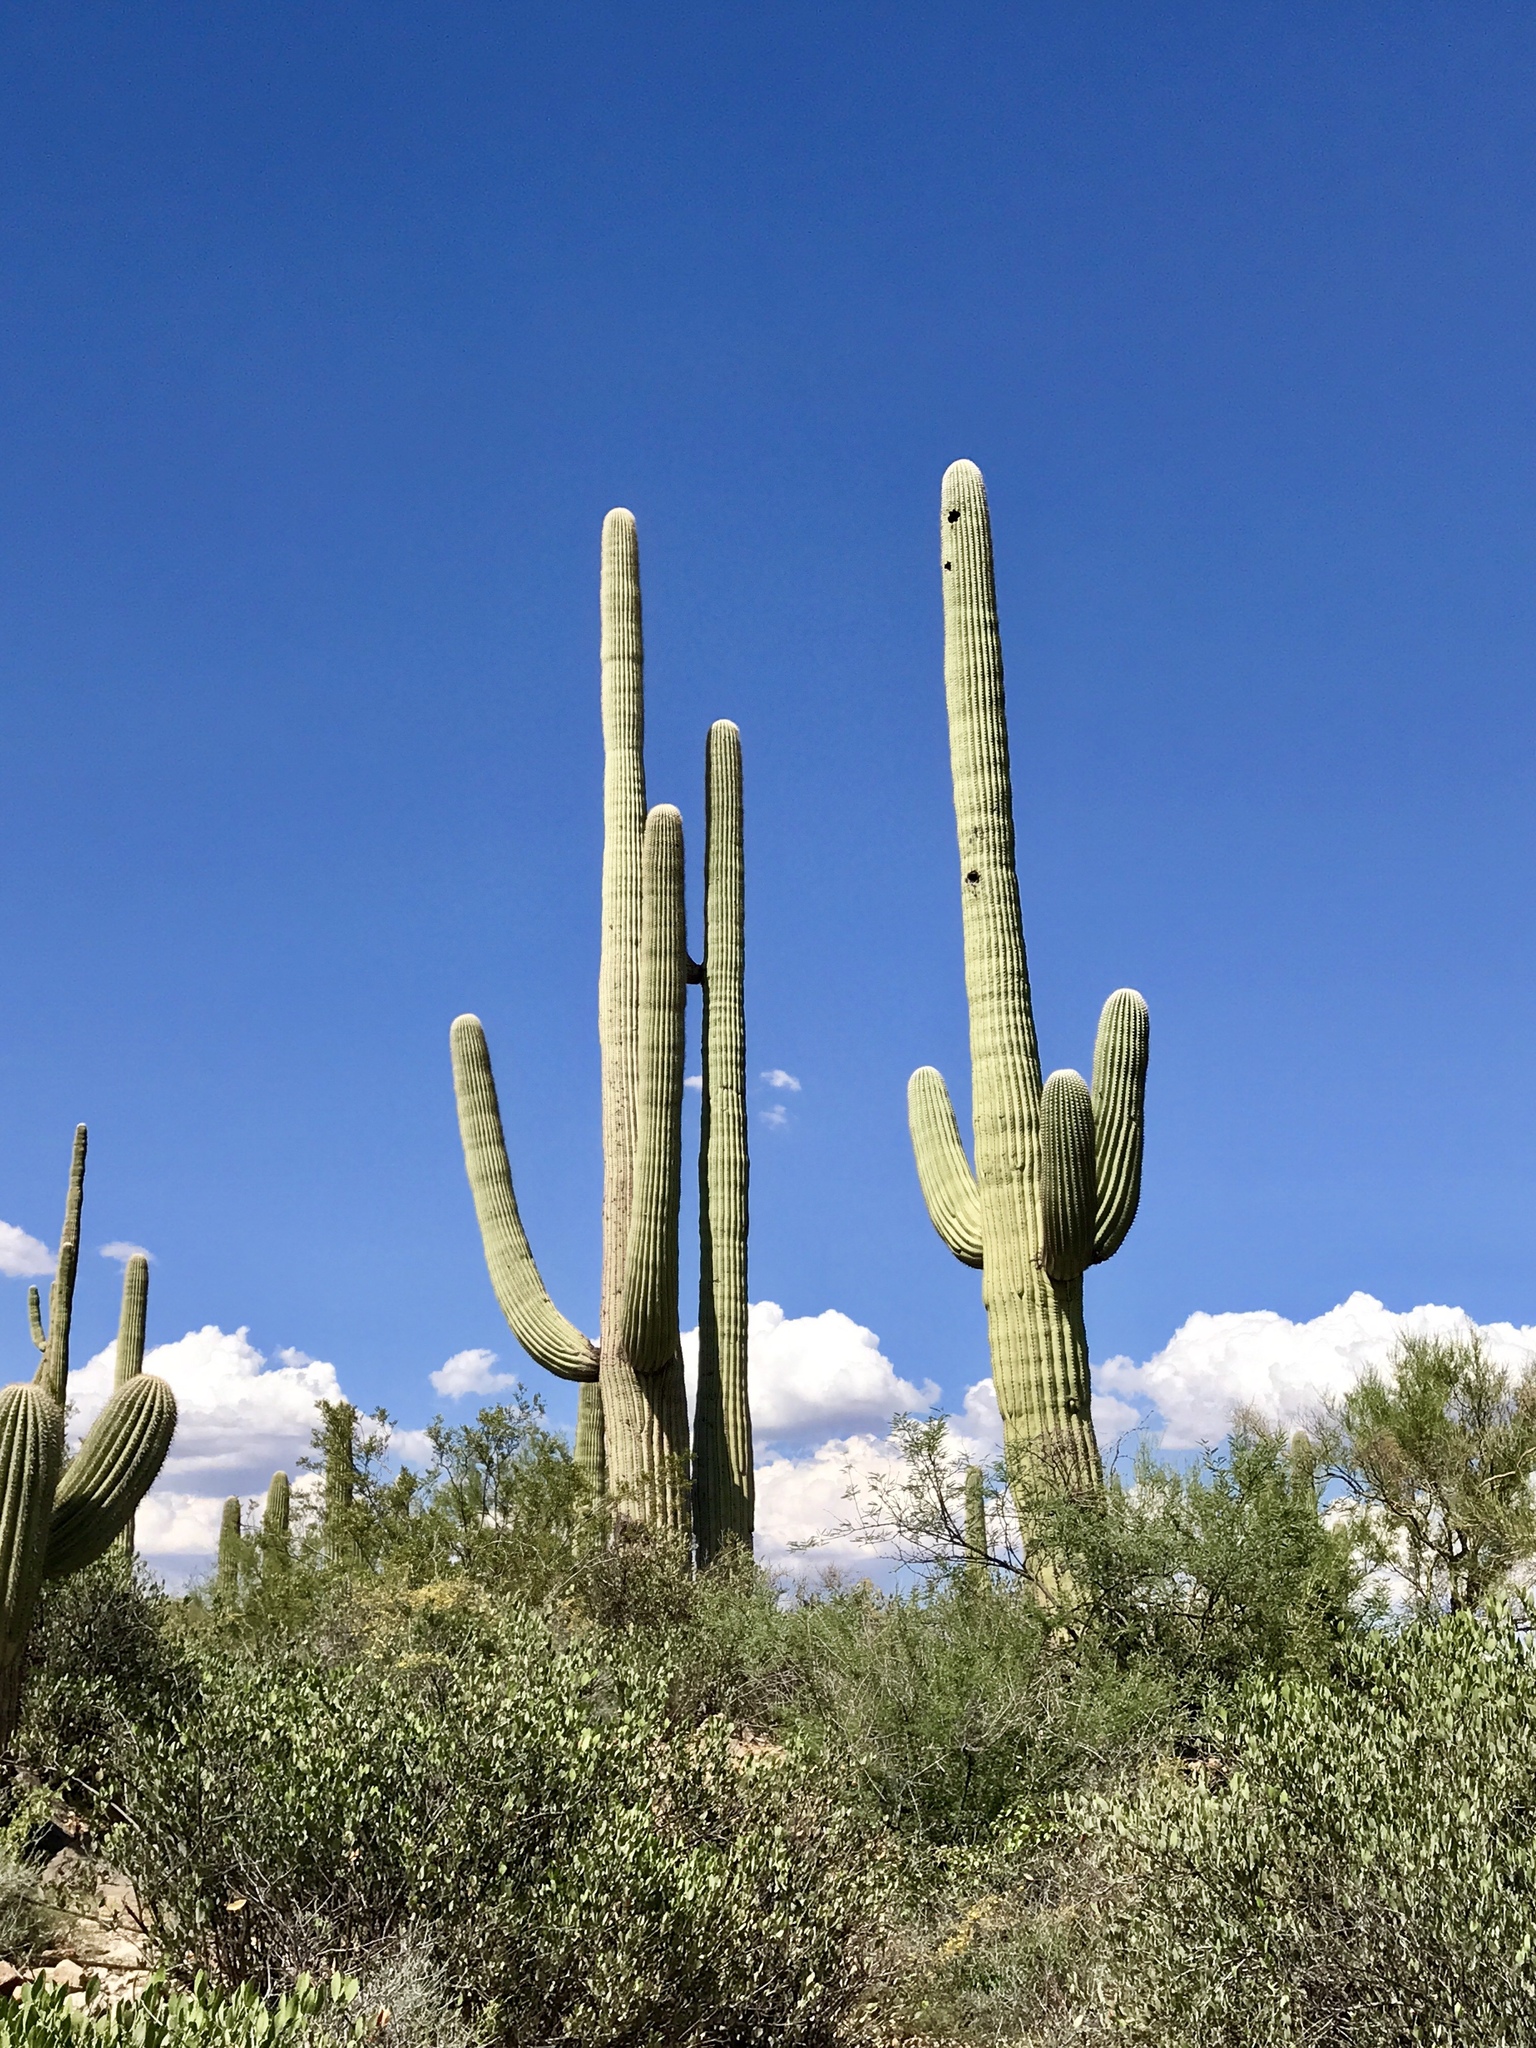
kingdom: Plantae
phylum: Tracheophyta
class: Magnoliopsida
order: Caryophyllales
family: Cactaceae
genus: Carnegiea
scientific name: Carnegiea gigantea
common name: Saguaro
